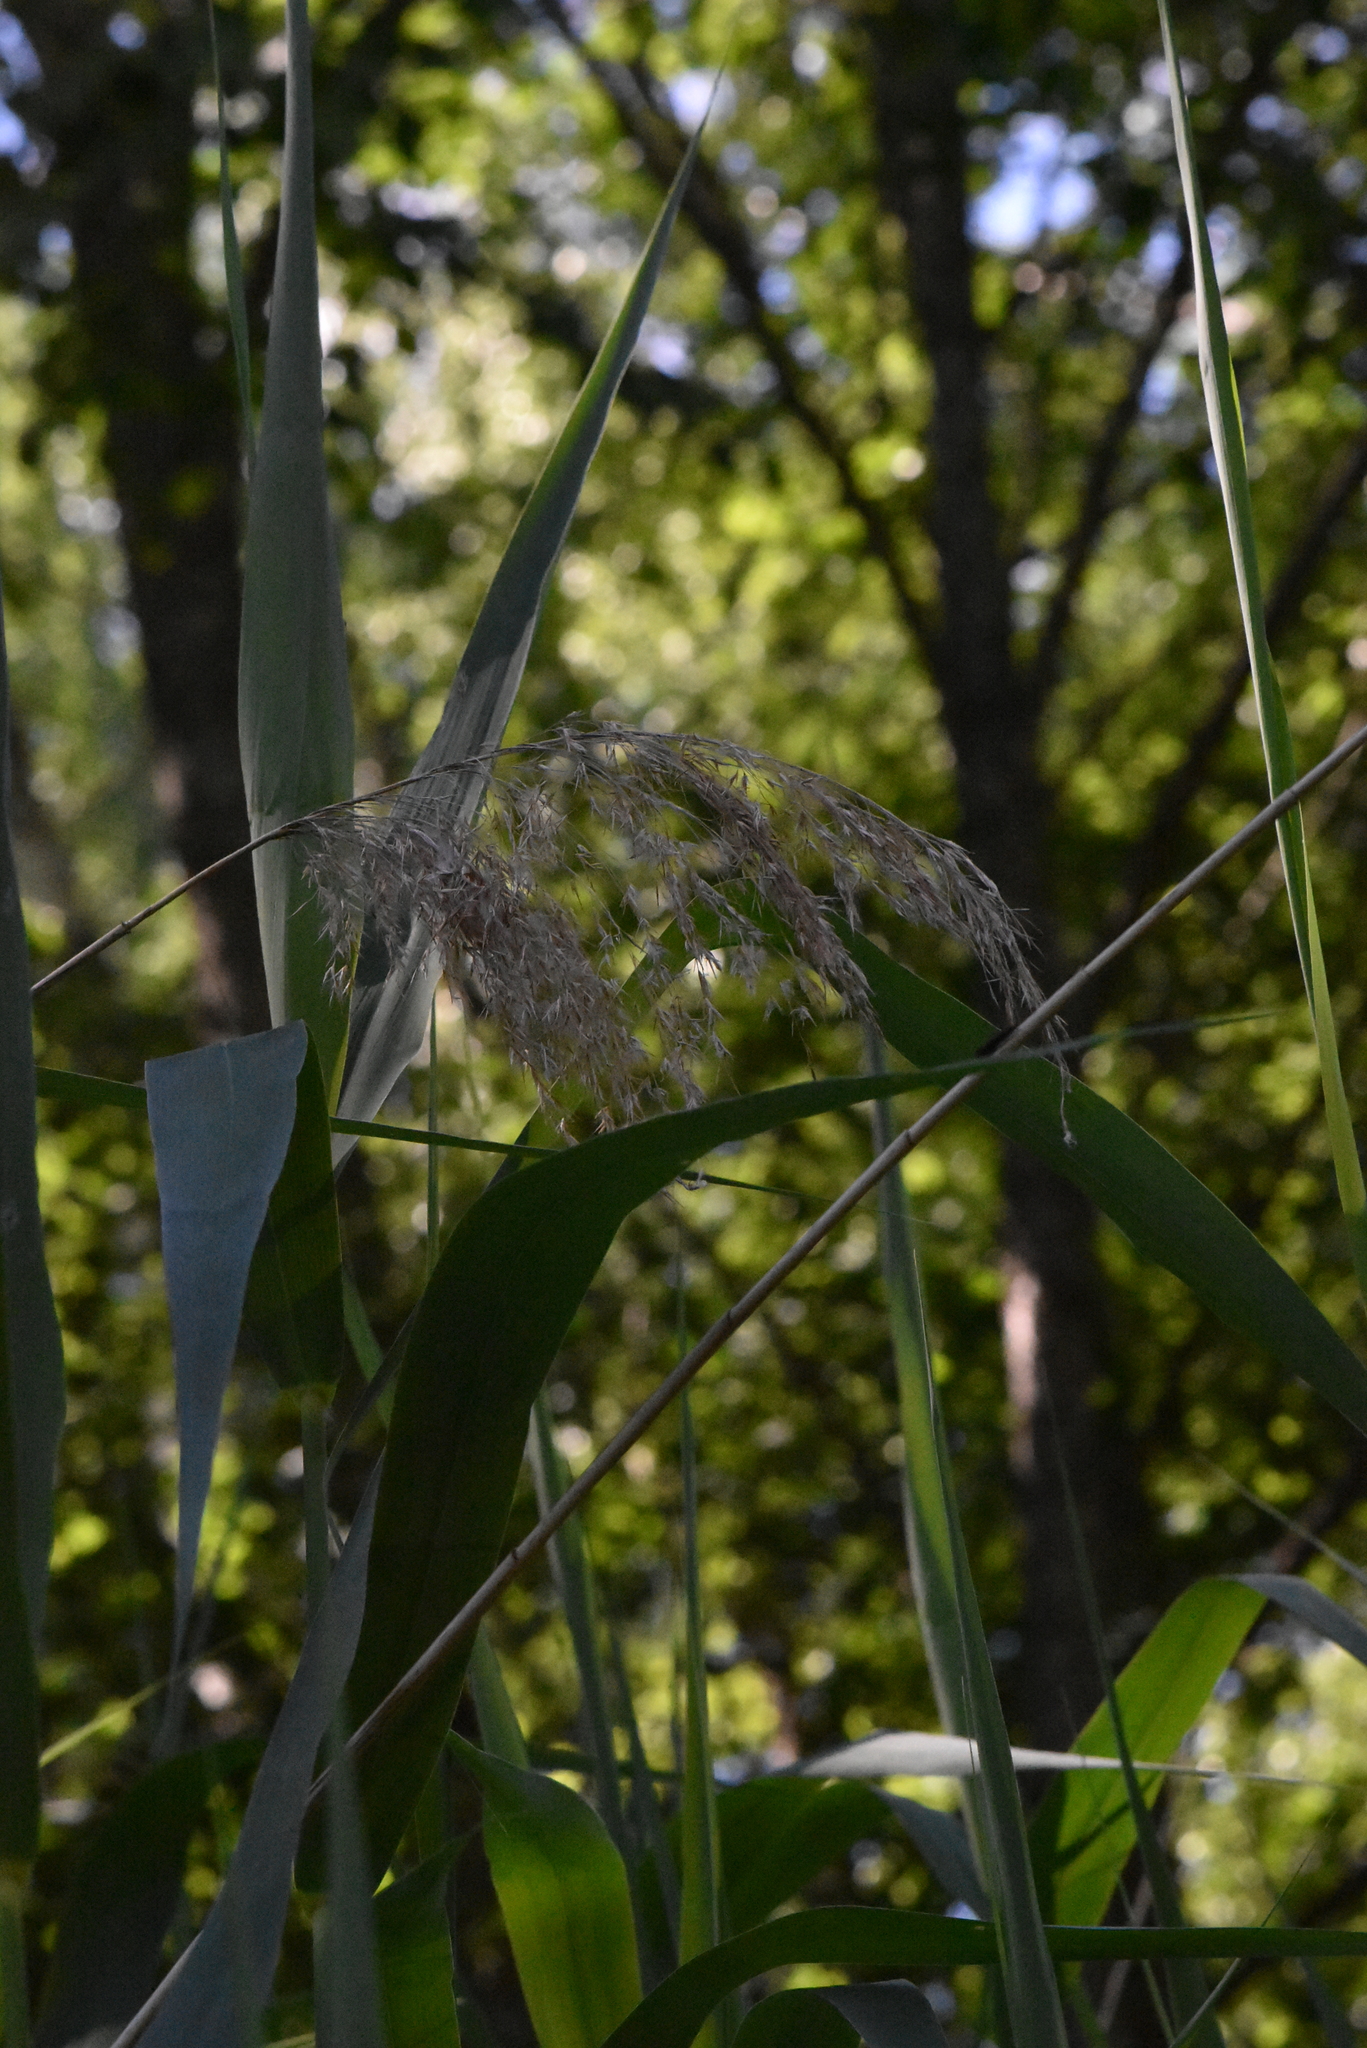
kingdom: Plantae
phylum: Tracheophyta
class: Liliopsida
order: Poales
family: Poaceae
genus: Phragmites
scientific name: Phragmites australis
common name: Common reed
